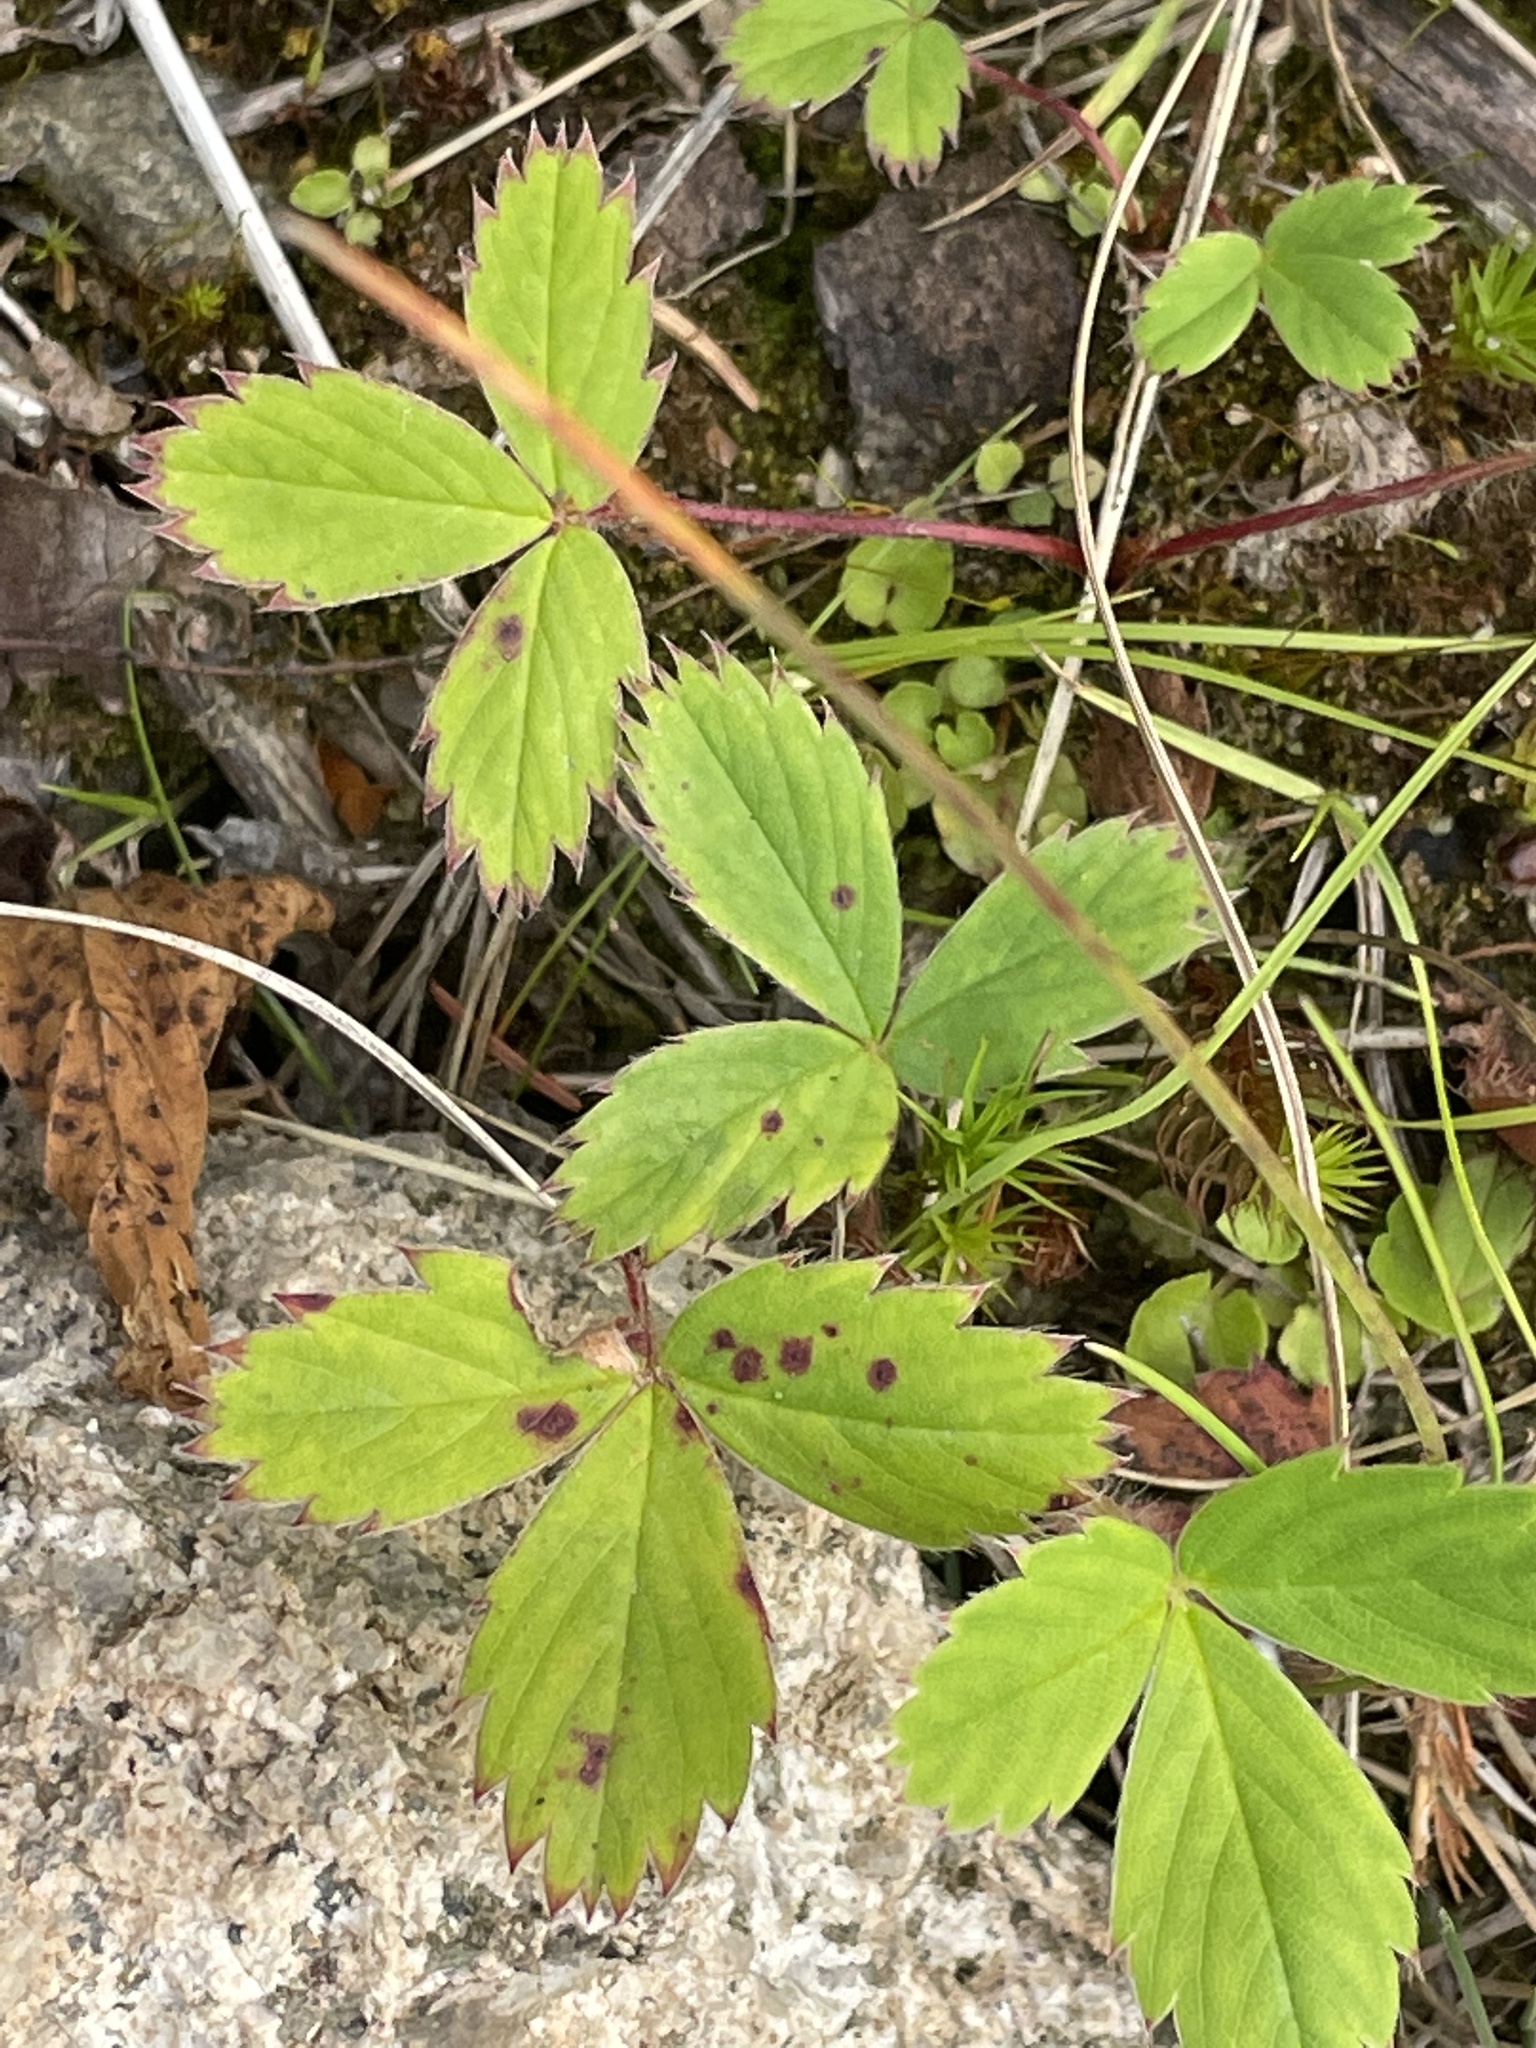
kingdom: Plantae
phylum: Tracheophyta
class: Magnoliopsida
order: Rosales
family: Rosaceae
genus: Fragaria
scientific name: Fragaria virginiana
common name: Thickleaved wild strawberry
